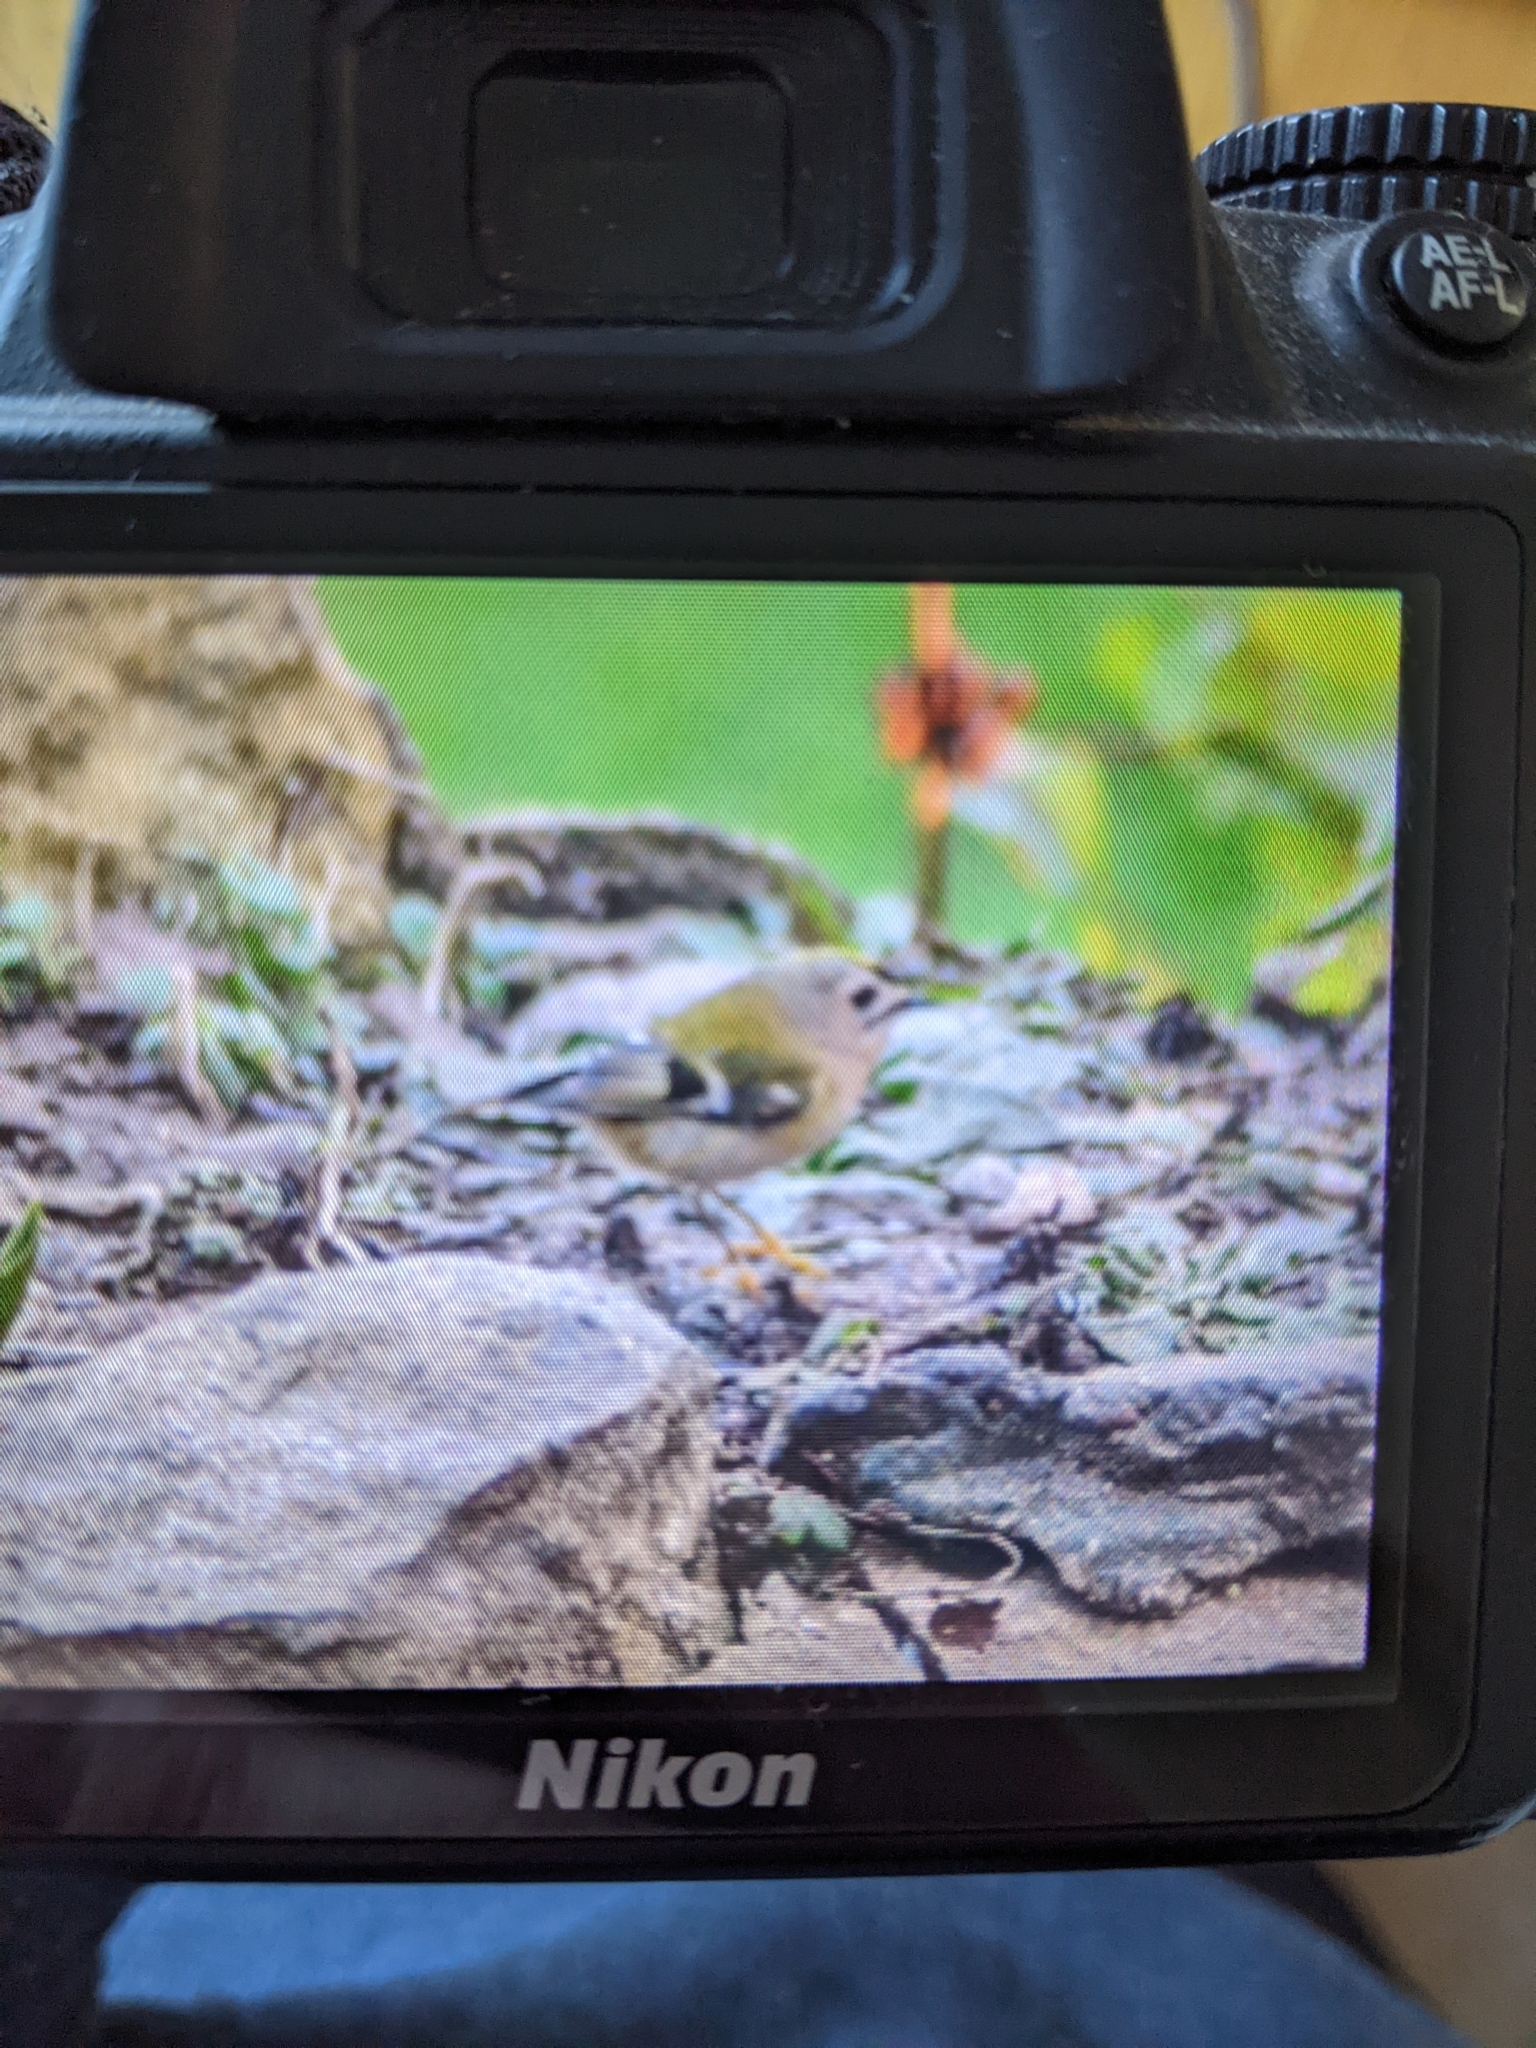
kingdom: Animalia
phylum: Chordata
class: Aves
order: Passeriformes
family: Regulidae
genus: Regulus
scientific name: Regulus regulus
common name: Goldcrest
